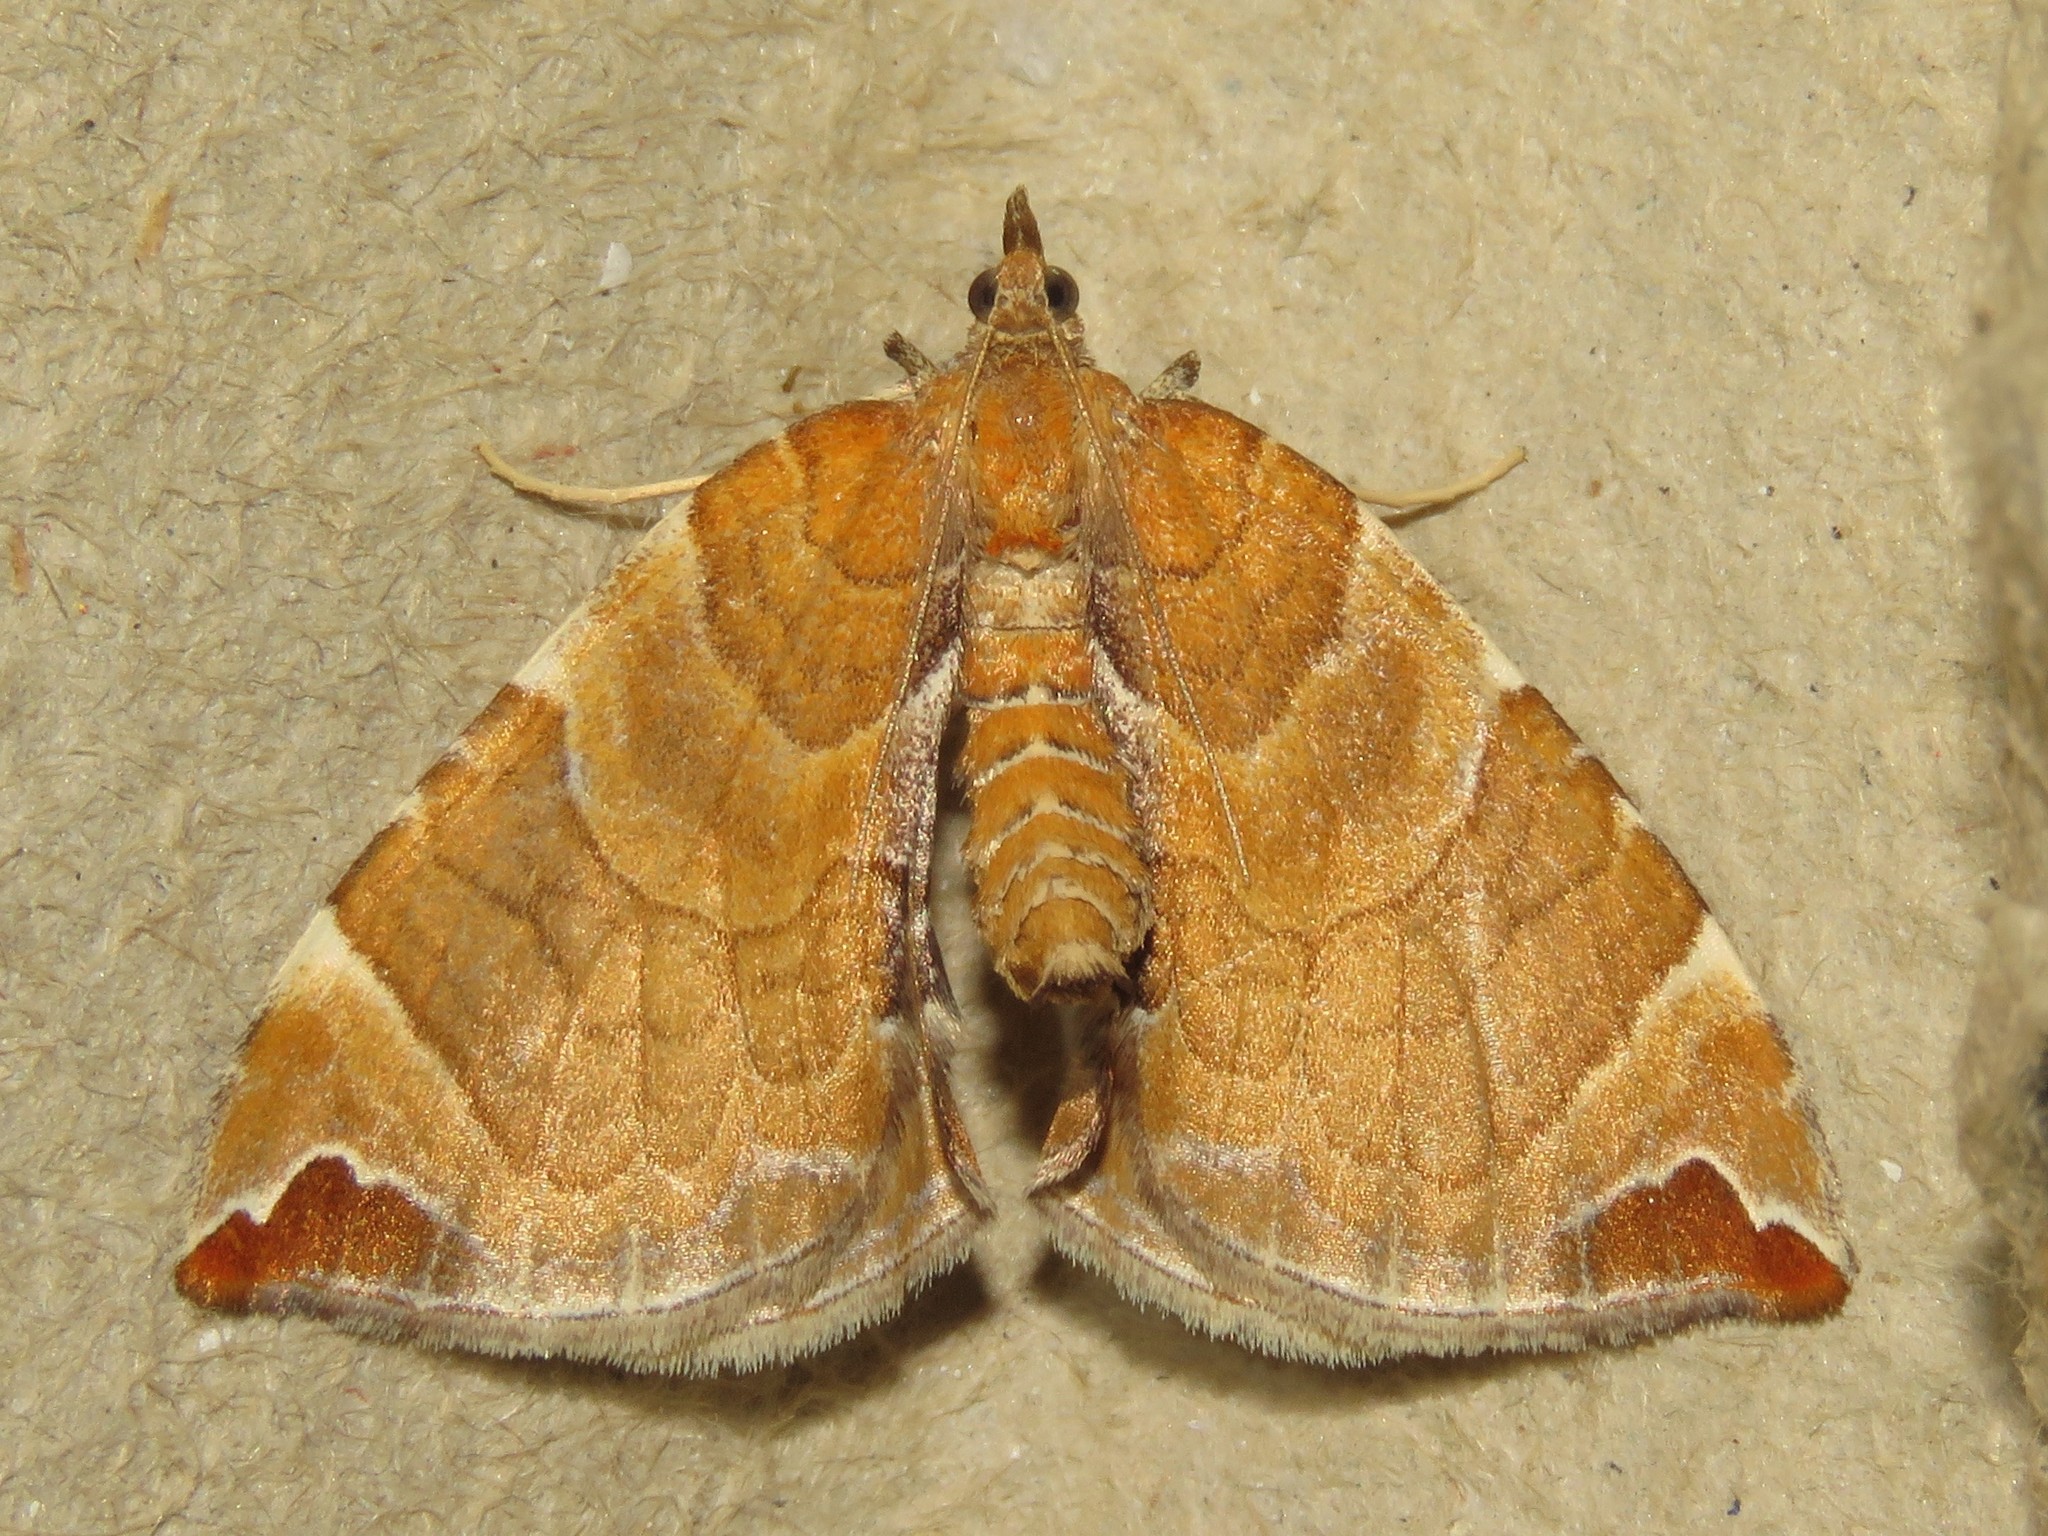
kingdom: Animalia
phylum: Arthropoda
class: Insecta
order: Lepidoptera
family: Geometridae
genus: Eulithis
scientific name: Eulithis molliculata
